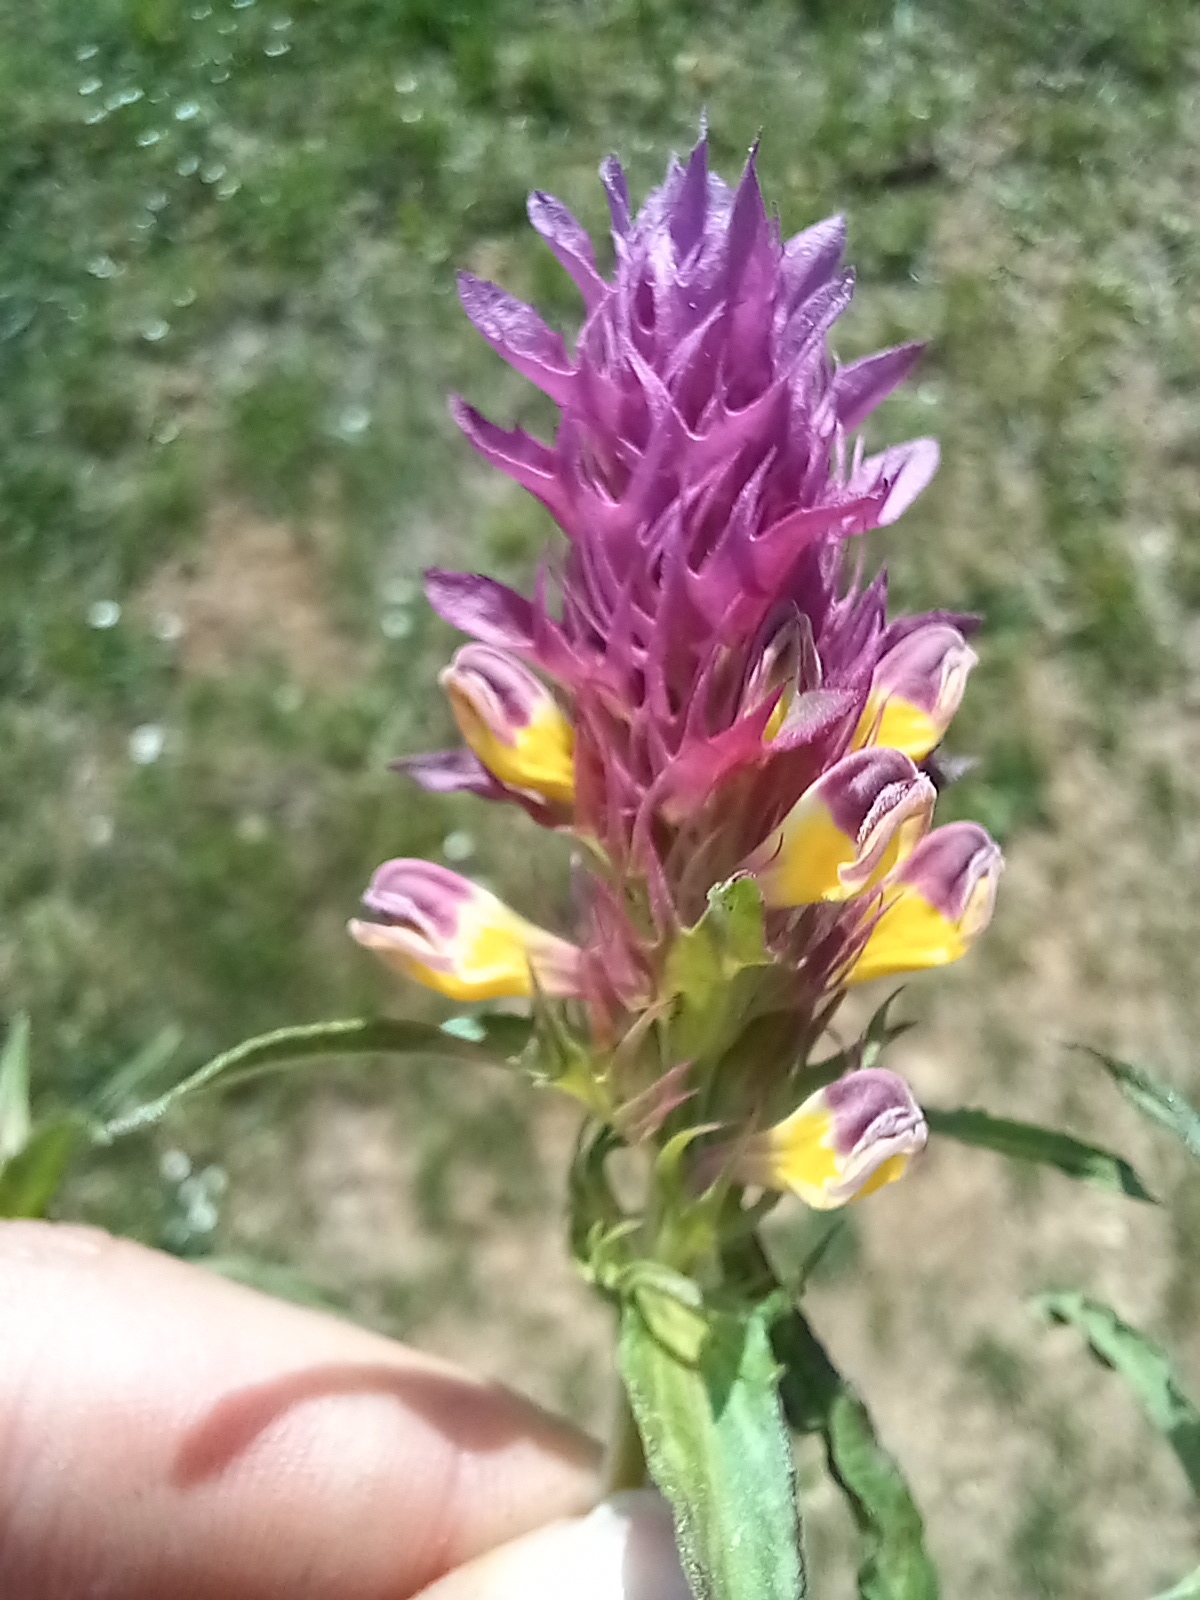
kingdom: Plantae
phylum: Tracheophyta
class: Magnoliopsida
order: Lamiales
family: Orobanchaceae
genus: Melampyrum
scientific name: Melampyrum arvense
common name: Field cow-wheat
